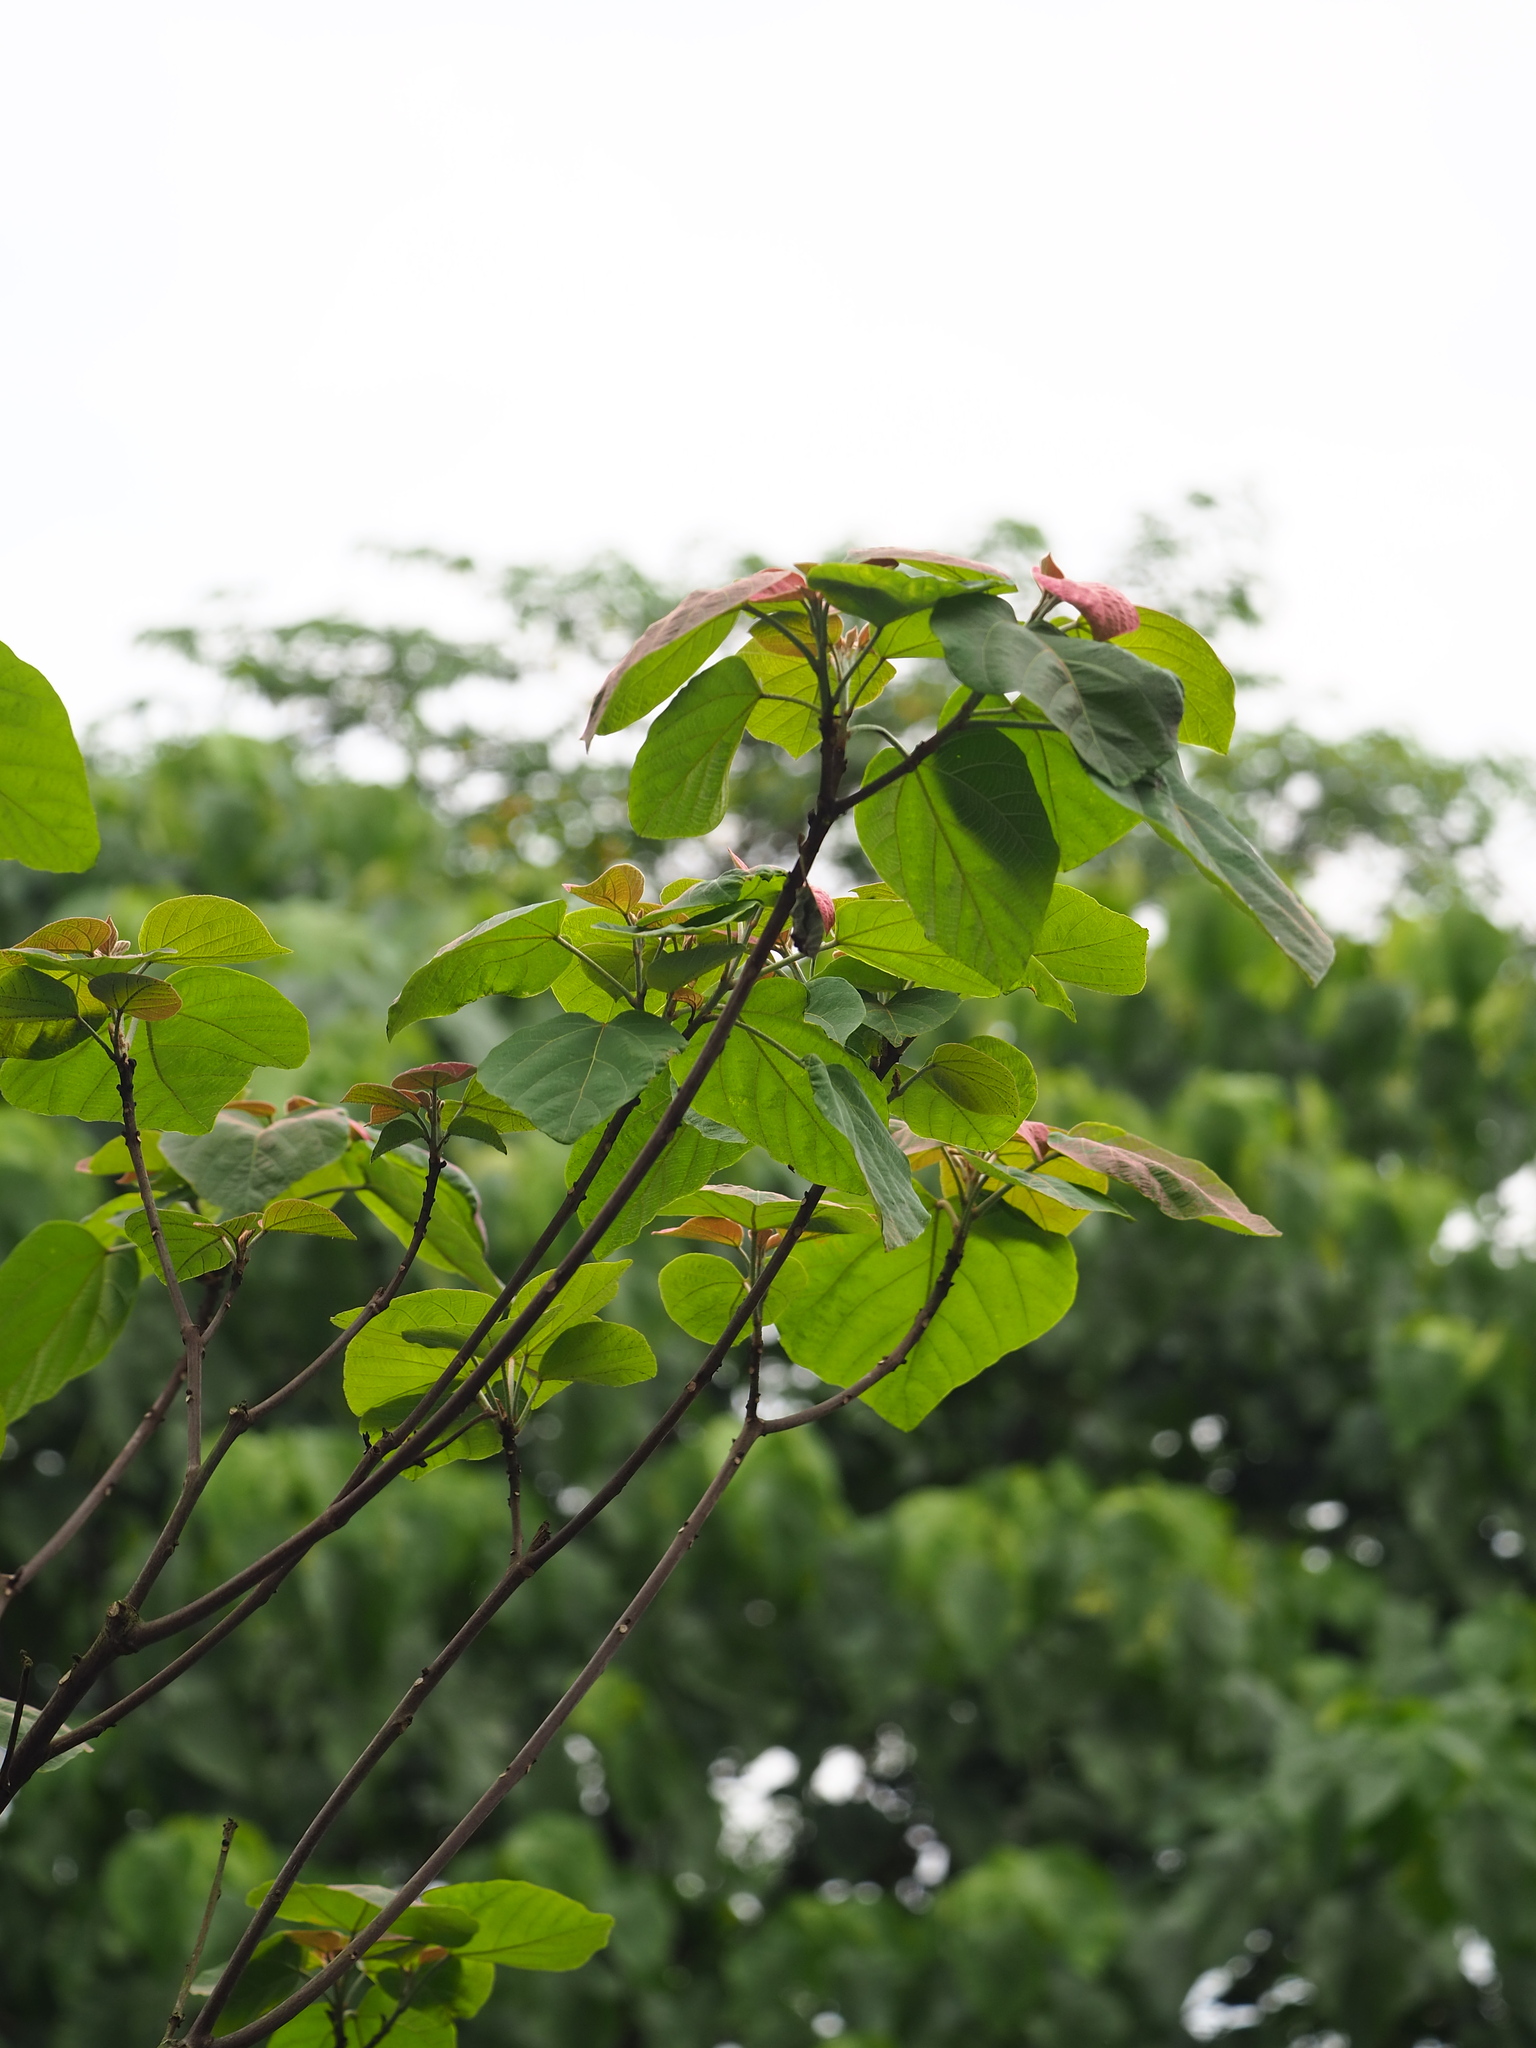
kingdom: Plantae
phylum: Tracheophyta
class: Magnoliopsida
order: Malpighiales
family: Euphorbiaceae
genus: Mallotus
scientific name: Mallotus japonicus
